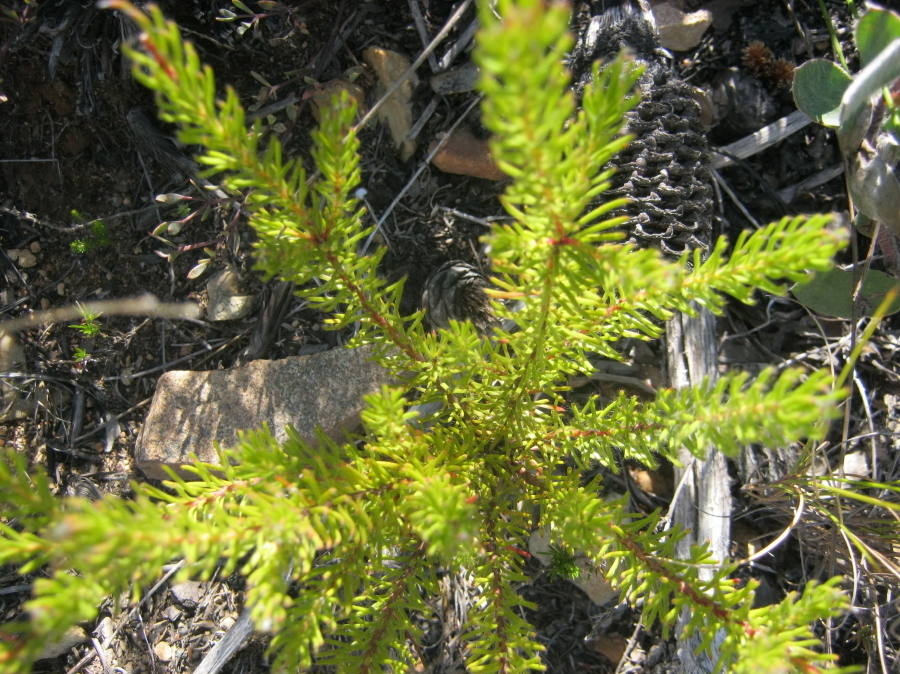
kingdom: Plantae
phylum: Tracheophyta
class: Magnoliopsida
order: Proteales
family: Proteaceae
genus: Spatalla
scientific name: Spatalla confusa
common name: Long-tube spoon
